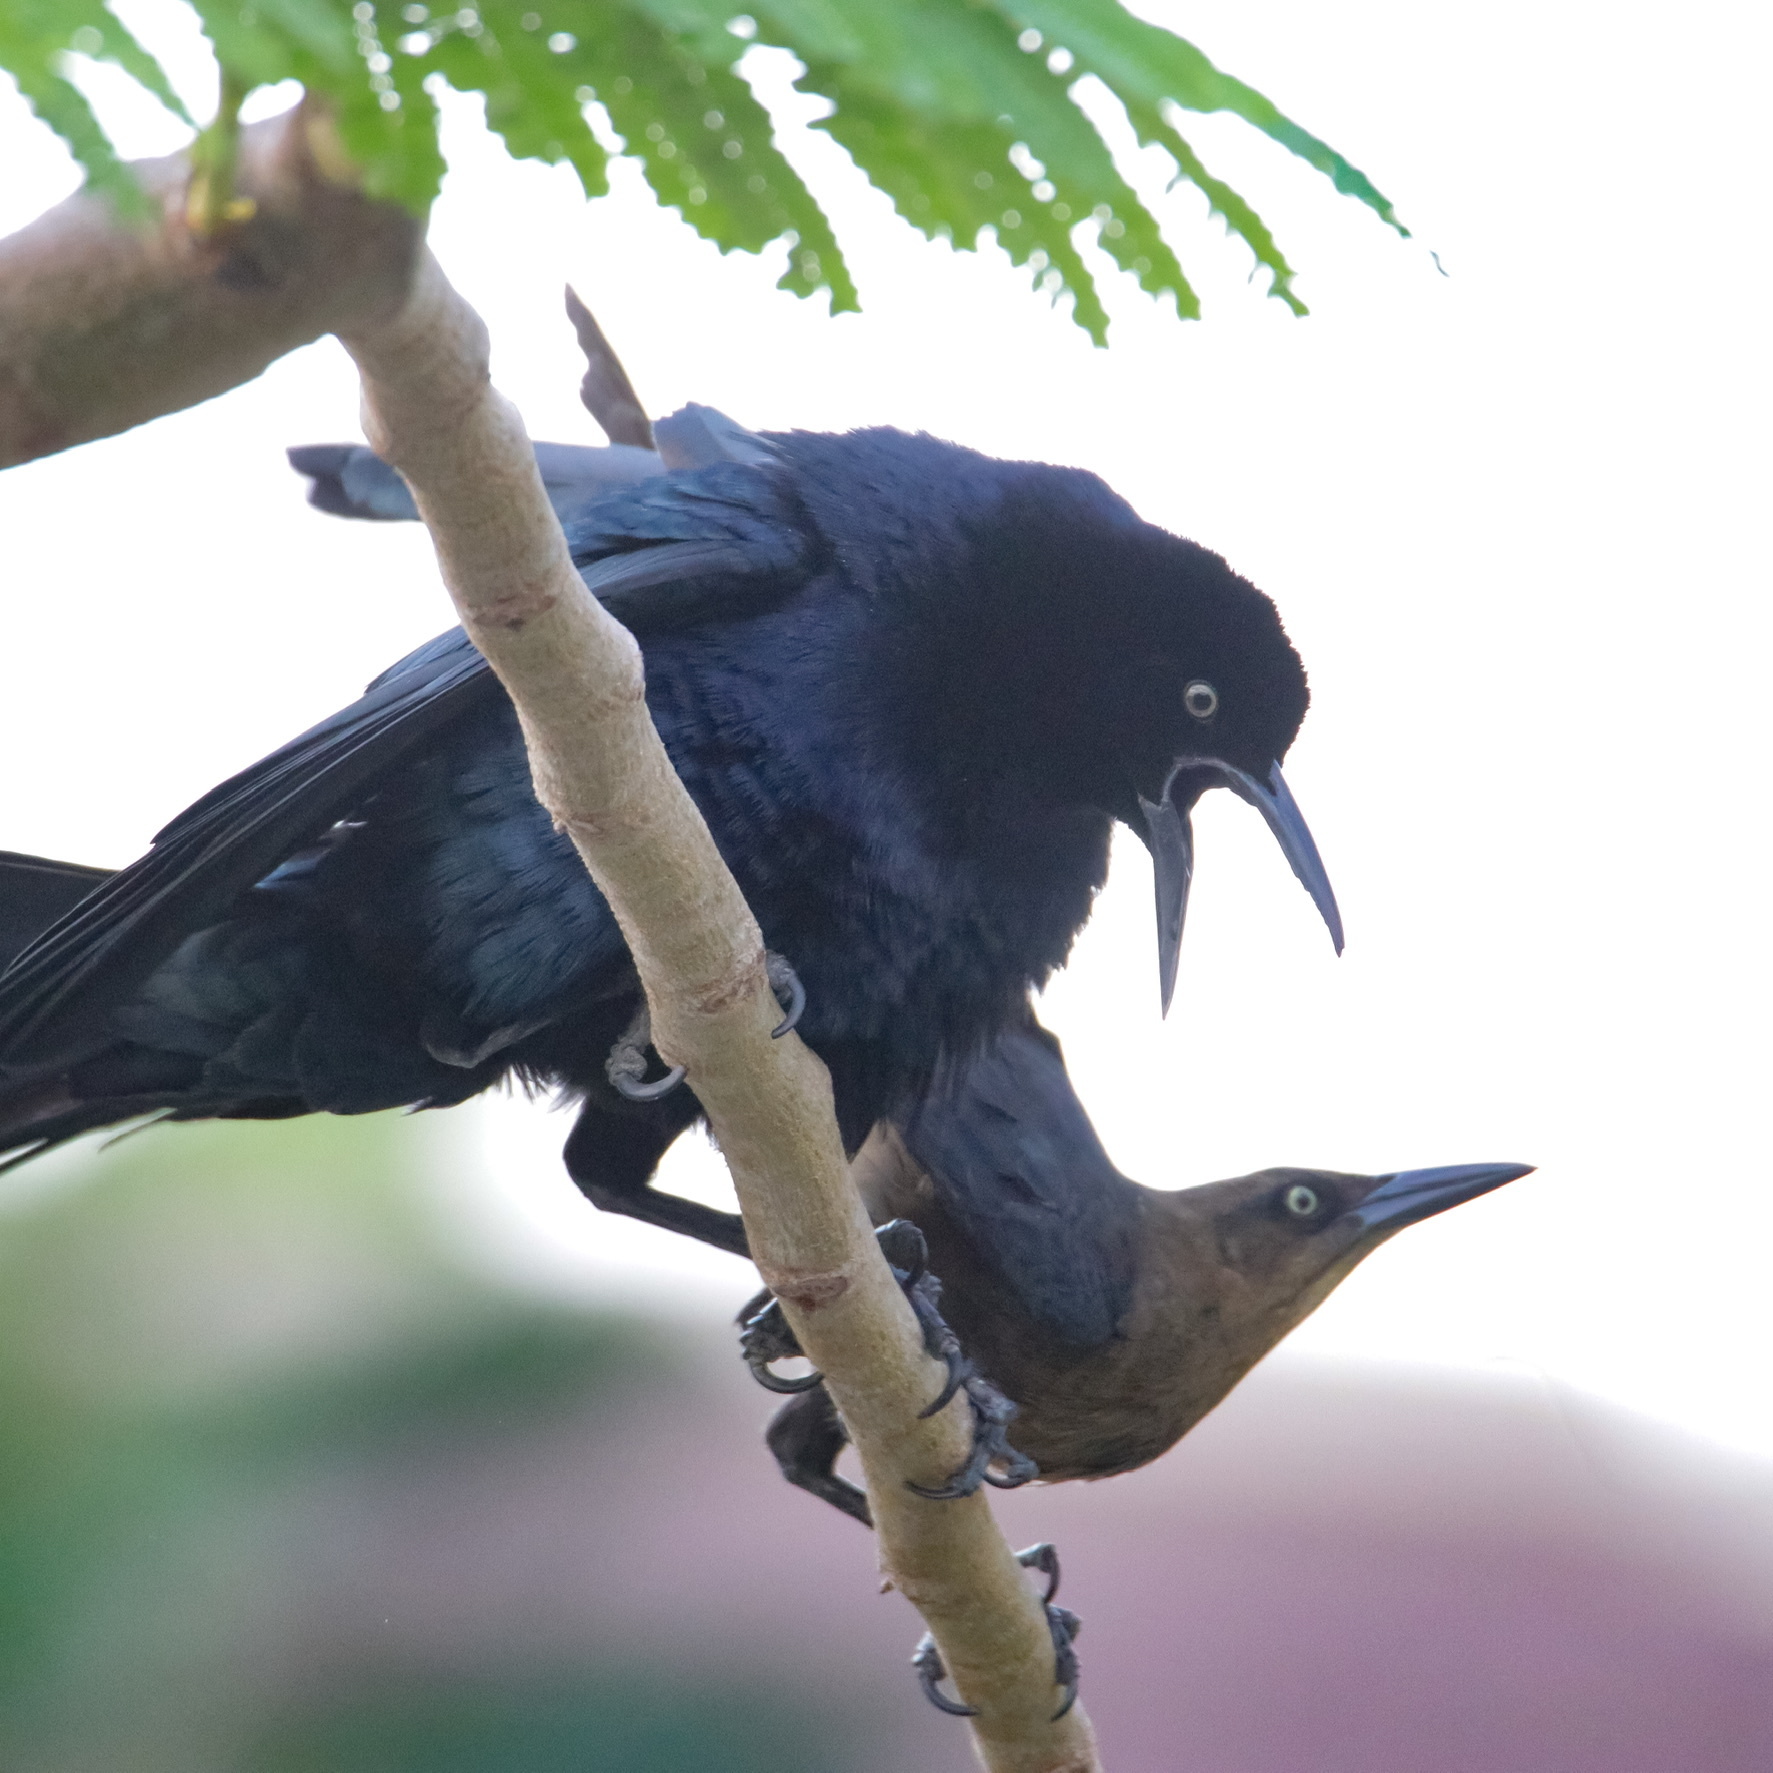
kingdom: Animalia
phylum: Chordata
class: Aves
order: Passeriformes
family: Icteridae
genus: Quiscalus
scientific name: Quiscalus mexicanus
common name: Great-tailed grackle
